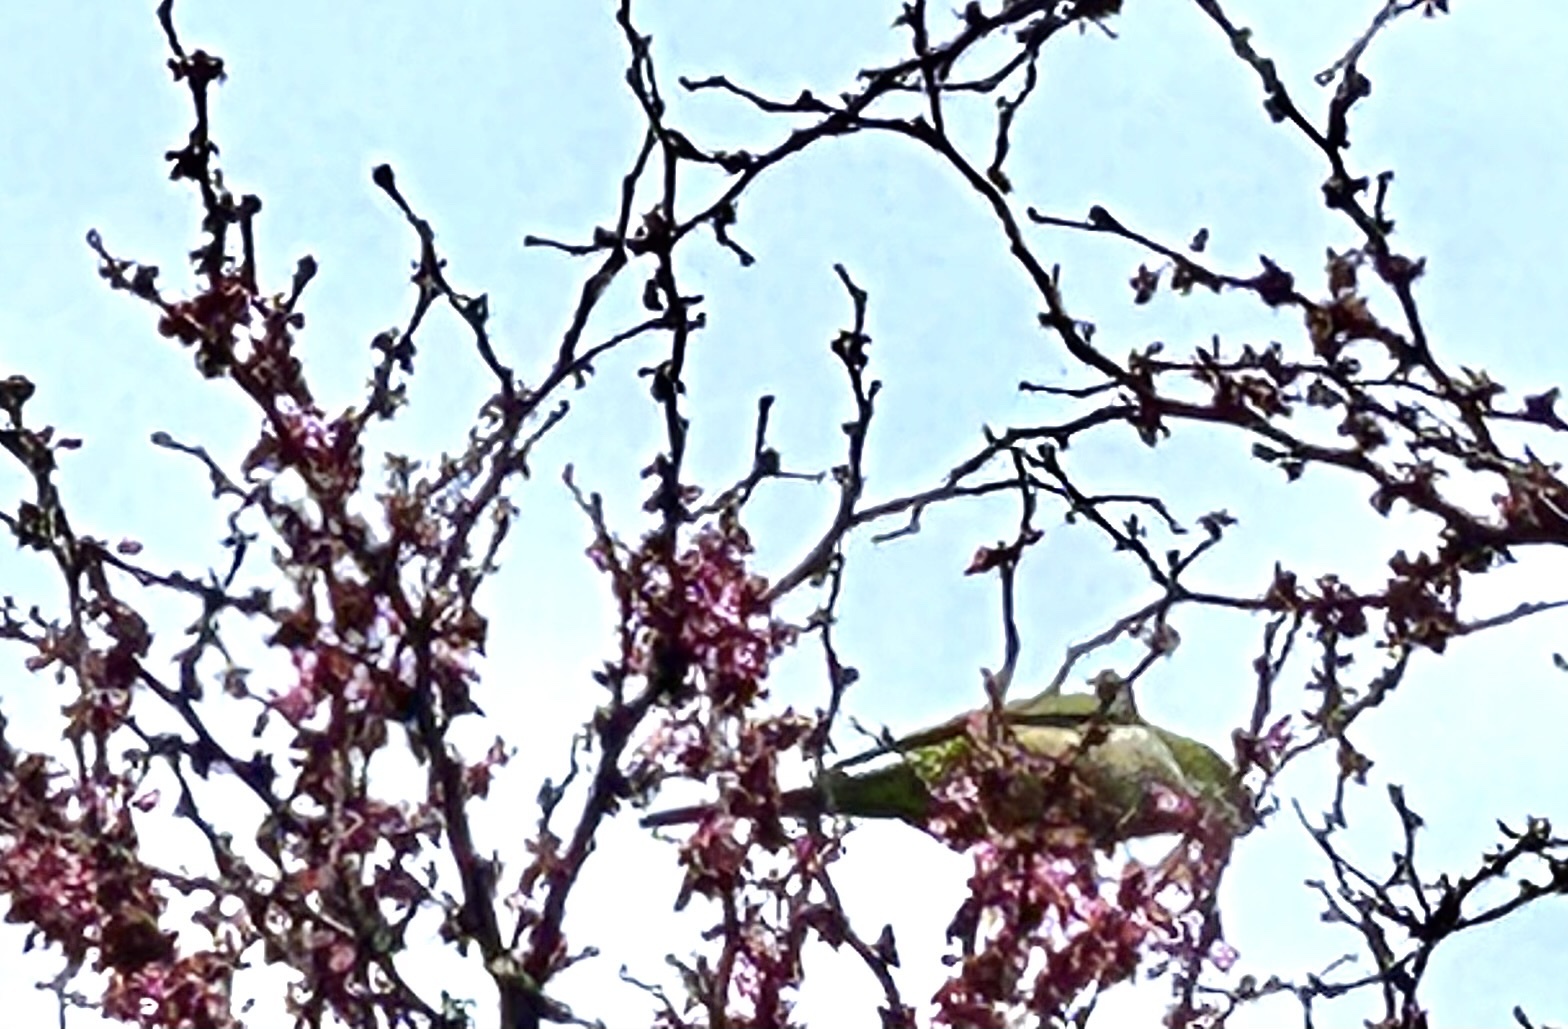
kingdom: Animalia
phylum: Chordata
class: Aves
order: Psittaciformes
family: Psittacidae
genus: Myiopsitta
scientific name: Myiopsitta monachus
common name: Monk parakeet
